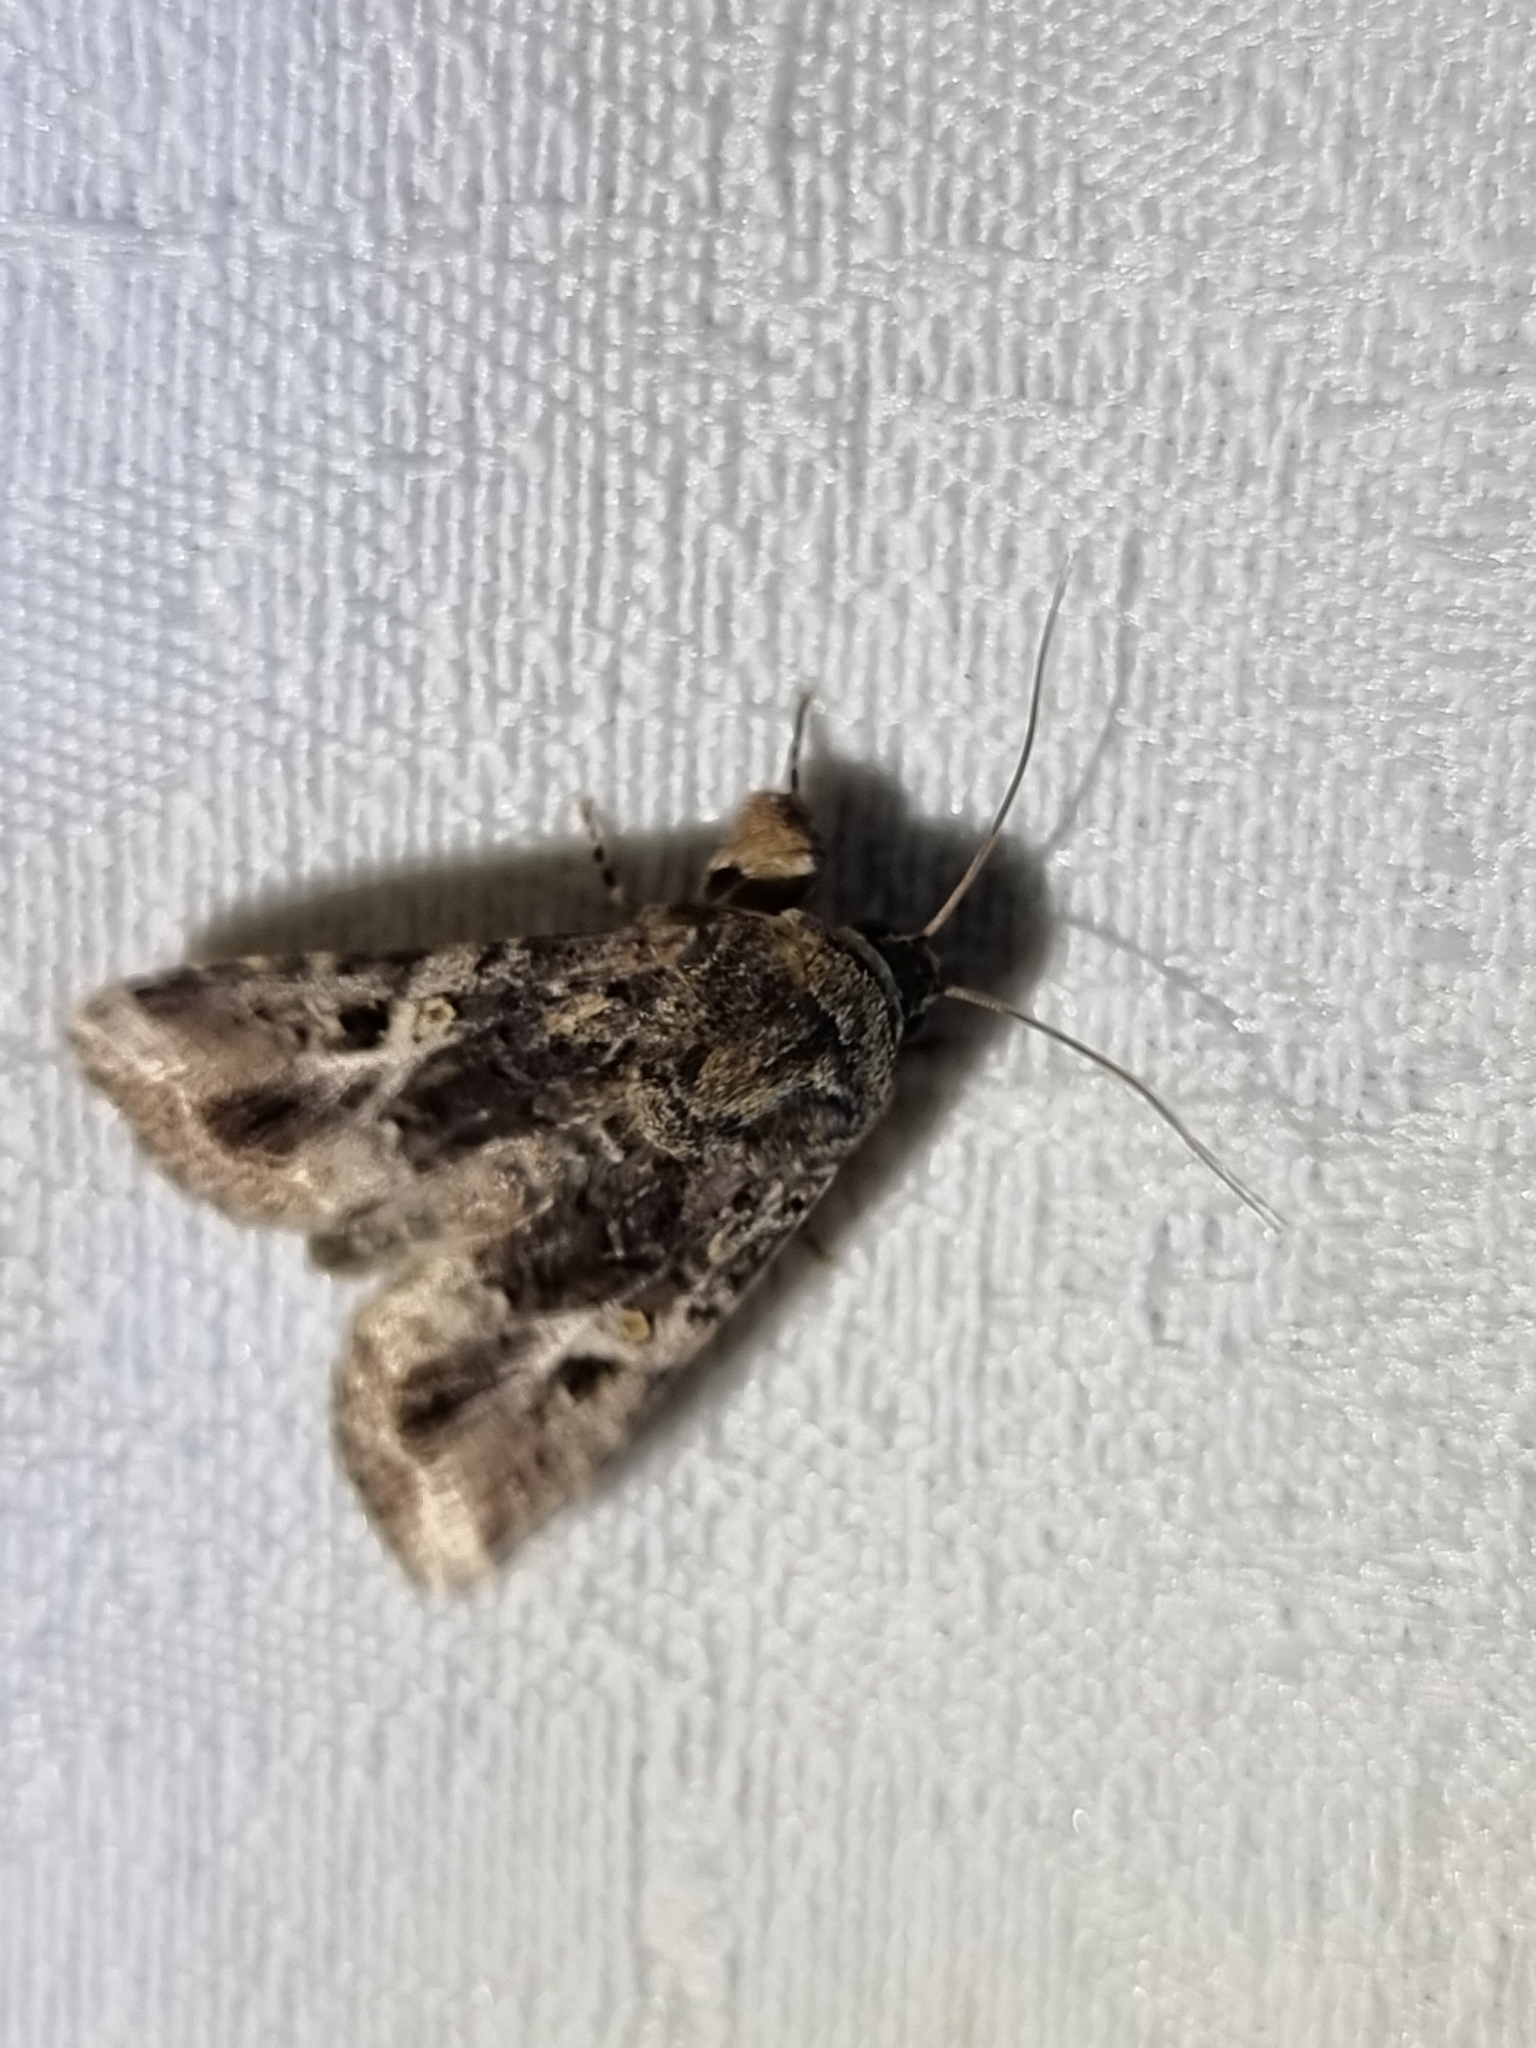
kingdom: Animalia
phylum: Arthropoda
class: Insecta
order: Lepidoptera
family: Noctuidae
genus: Spodoptera
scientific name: Spodoptera mauritia
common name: Lawn armyworm
